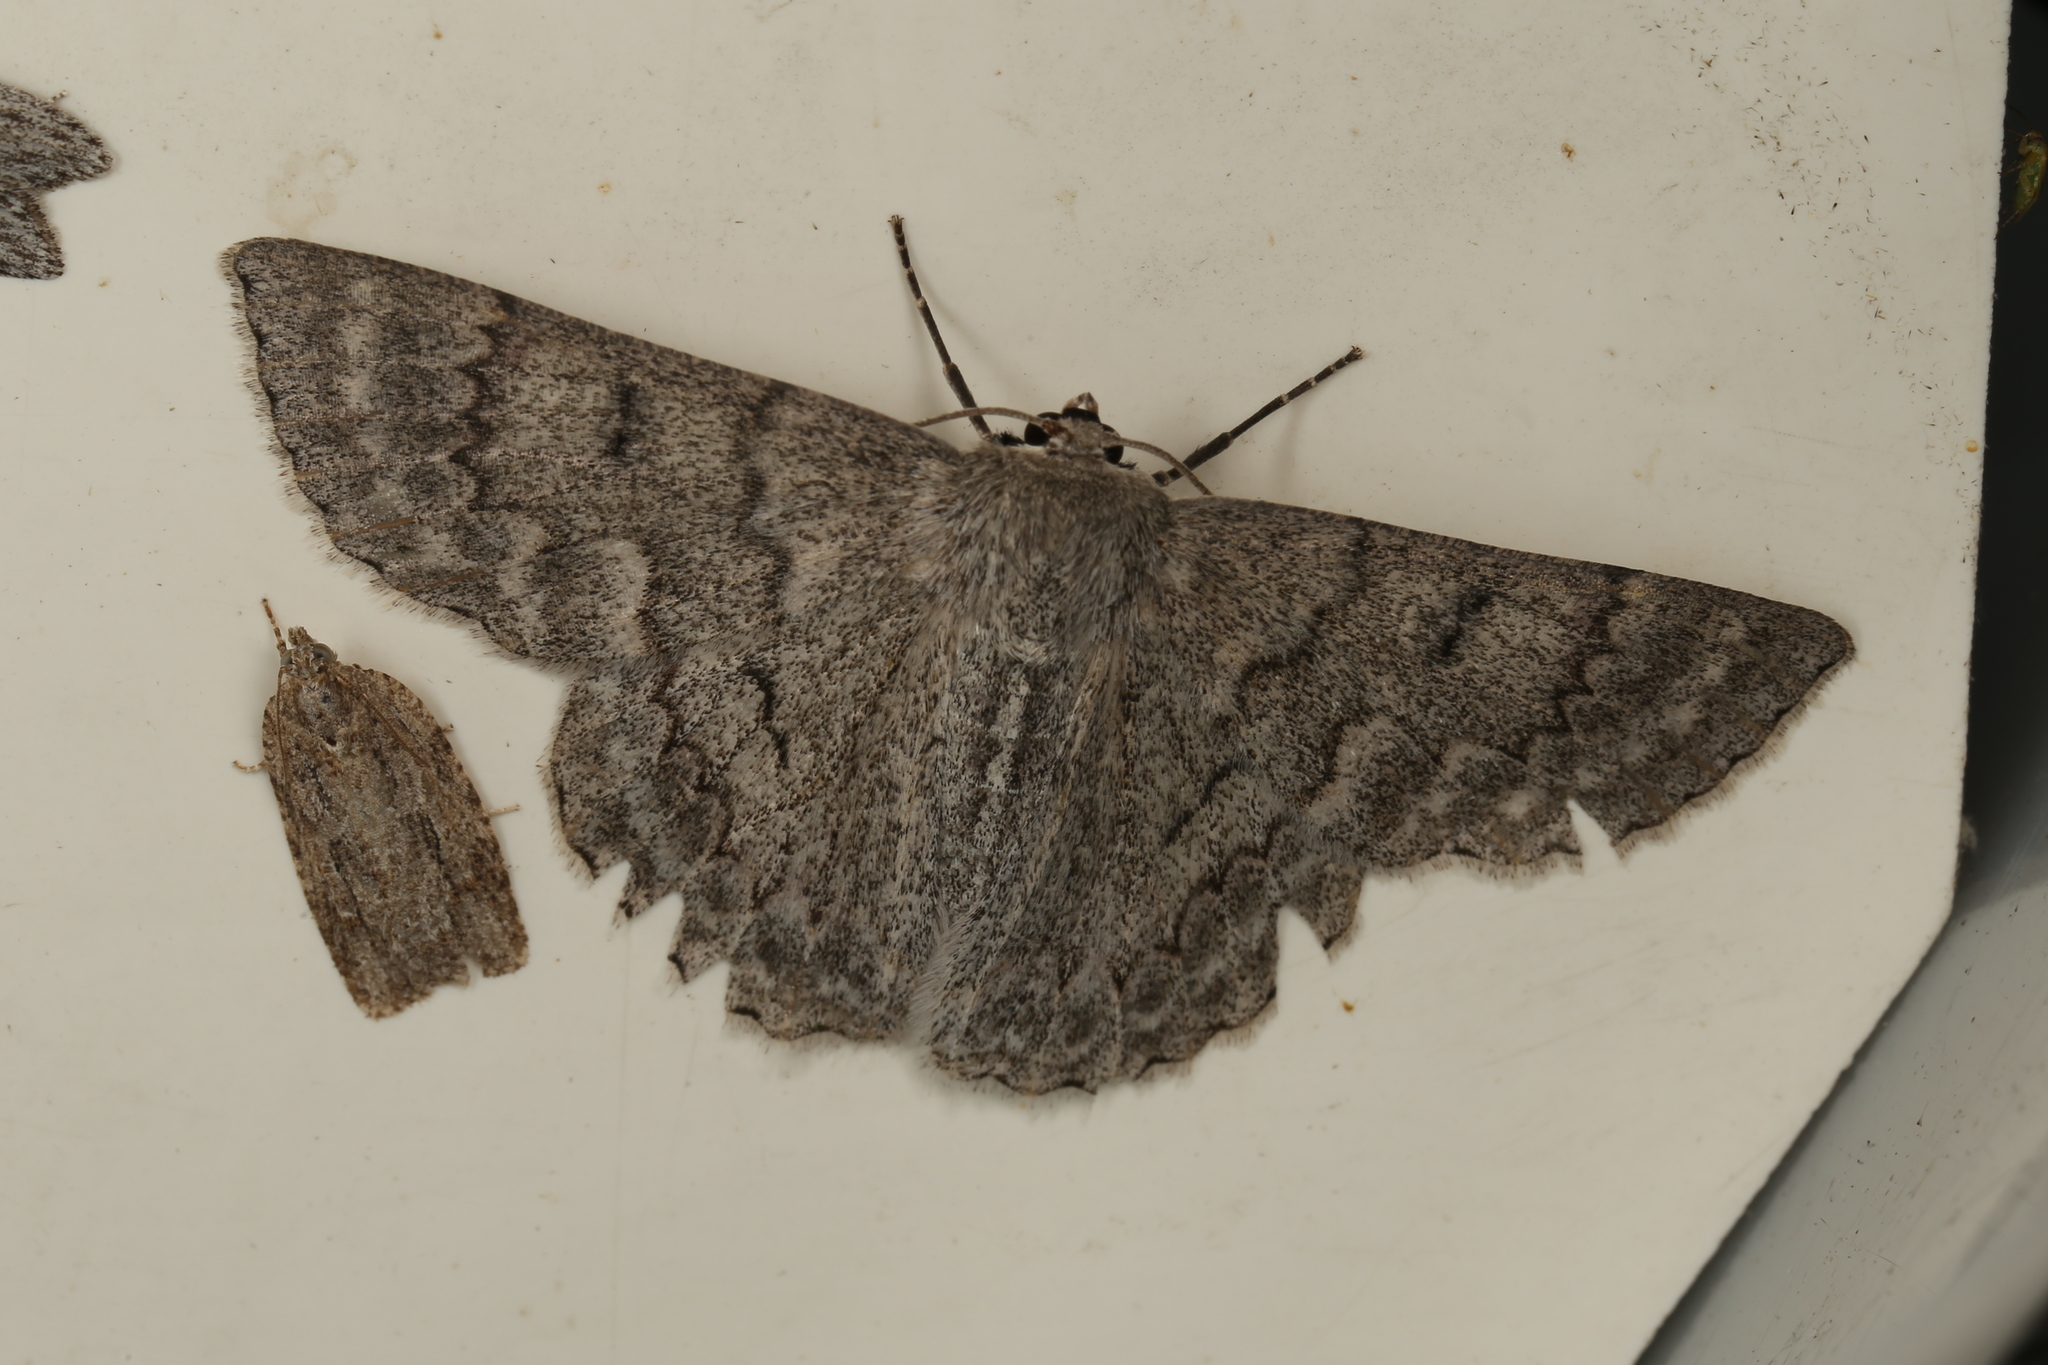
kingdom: Animalia
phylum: Arthropoda
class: Insecta
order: Lepidoptera
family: Geometridae
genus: Crypsiphona
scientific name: Crypsiphona ocultaria
